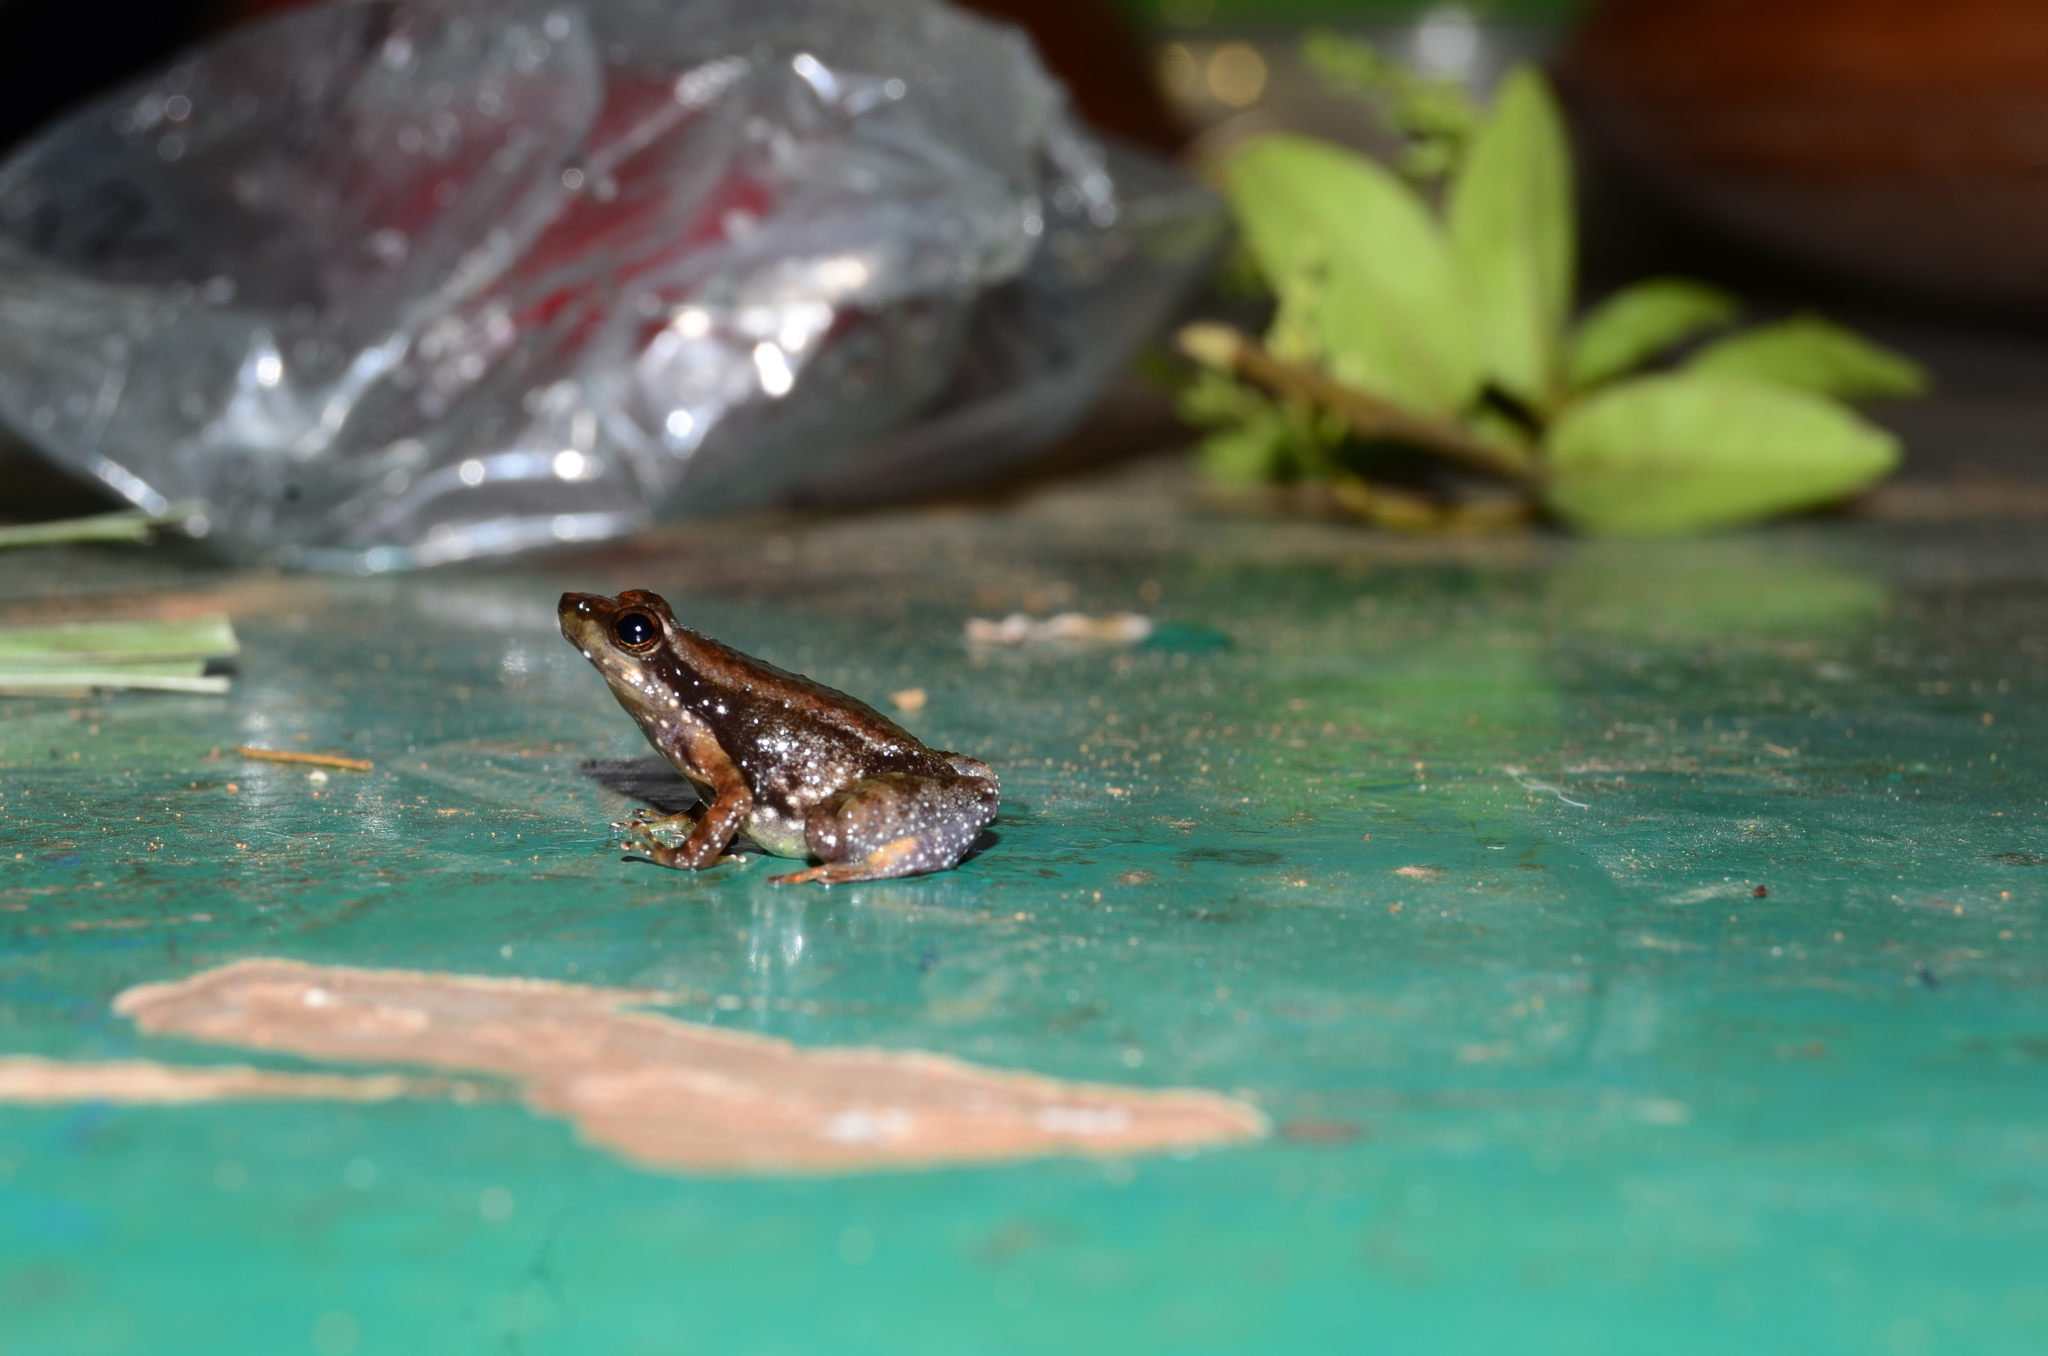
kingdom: Animalia
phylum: Chordata
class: Amphibia
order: Anura
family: Micrixalidae
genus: Micrixalus
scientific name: Micrixalus elegans
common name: Elegant dancing frog
